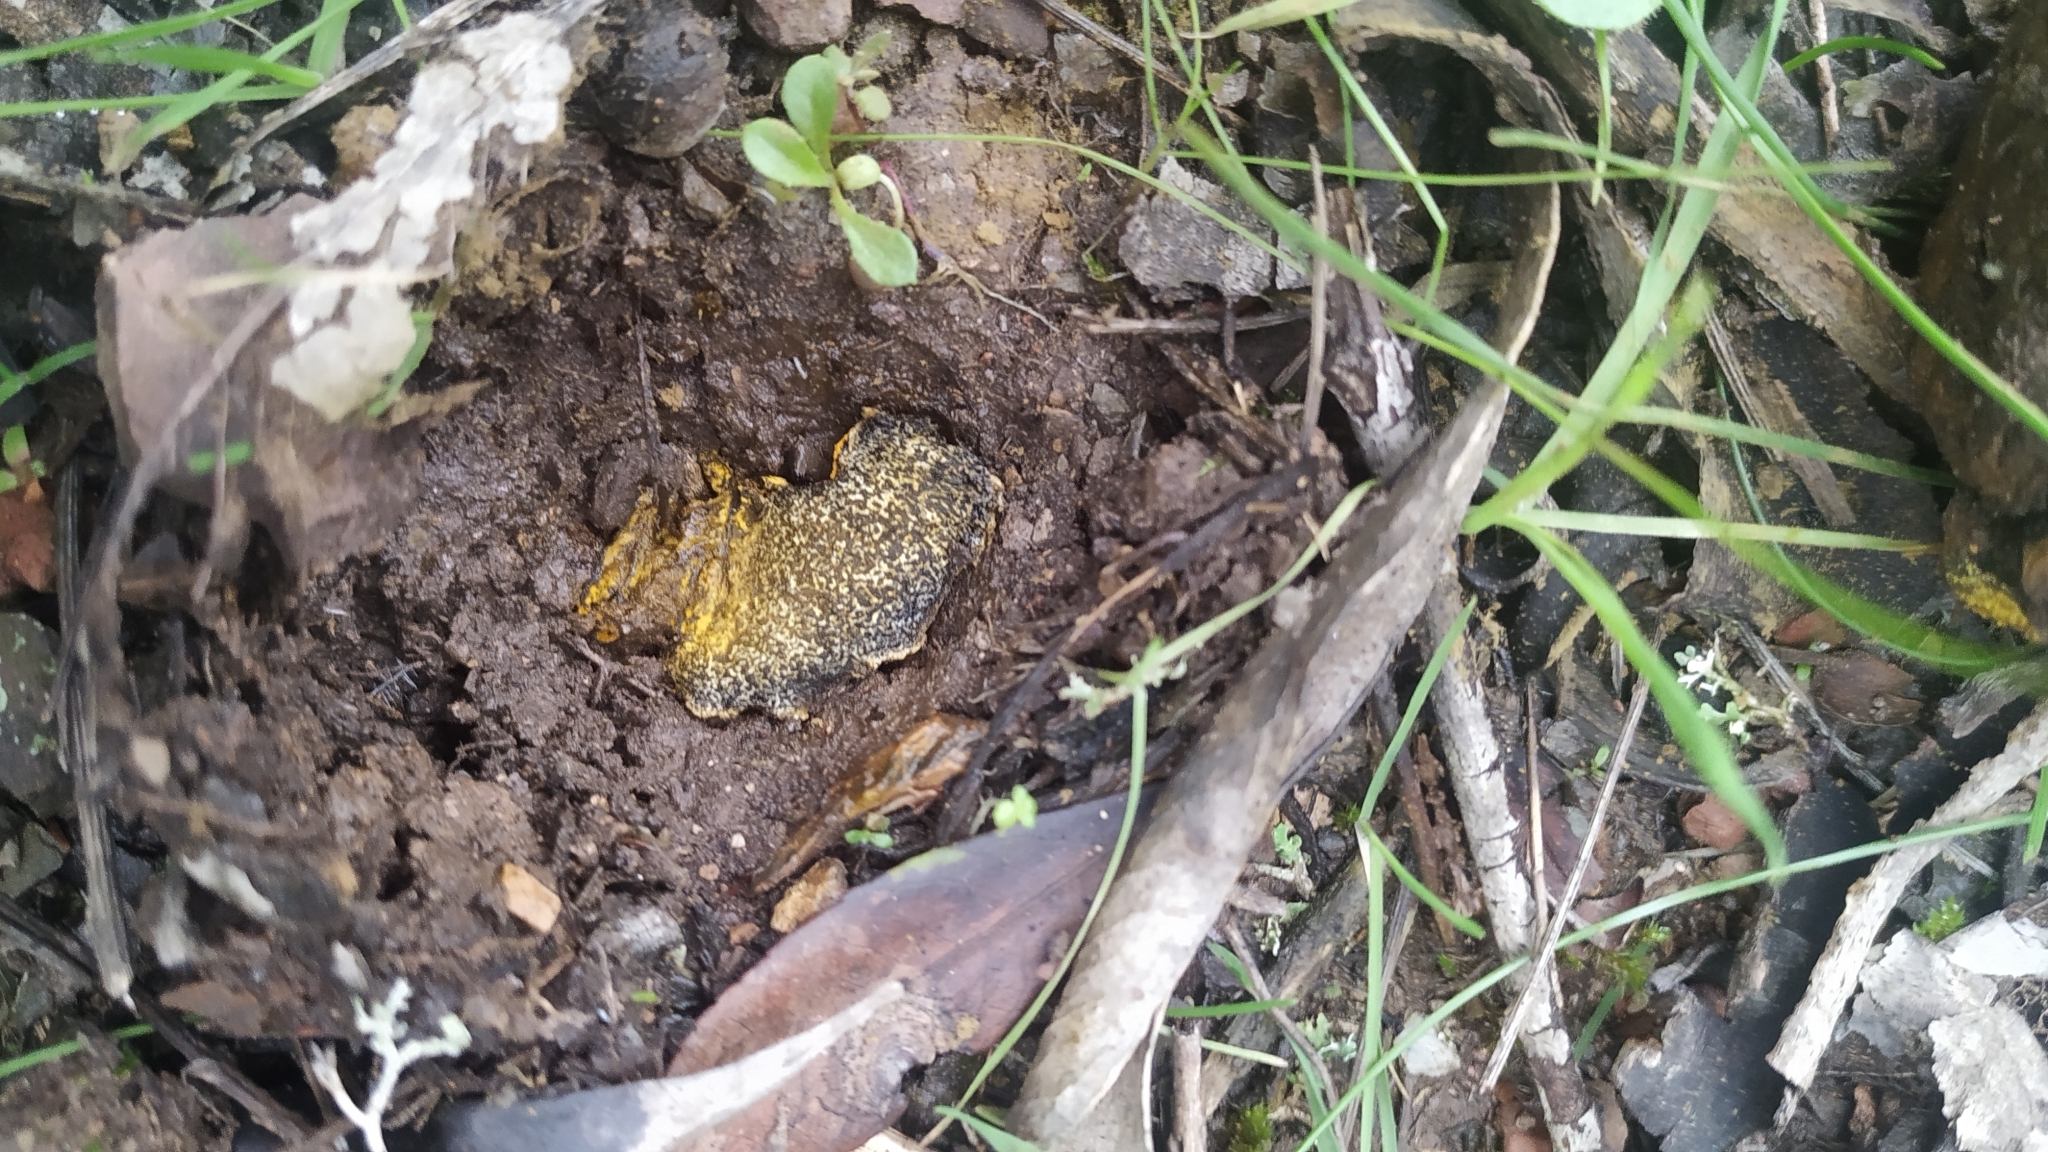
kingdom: Fungi
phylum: Basidiomycota
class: Agaricomycetes
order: Boletales
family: Sclerodermataceae
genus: Pisolithus
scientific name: Pisolithus arhizus
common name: Dyeball
